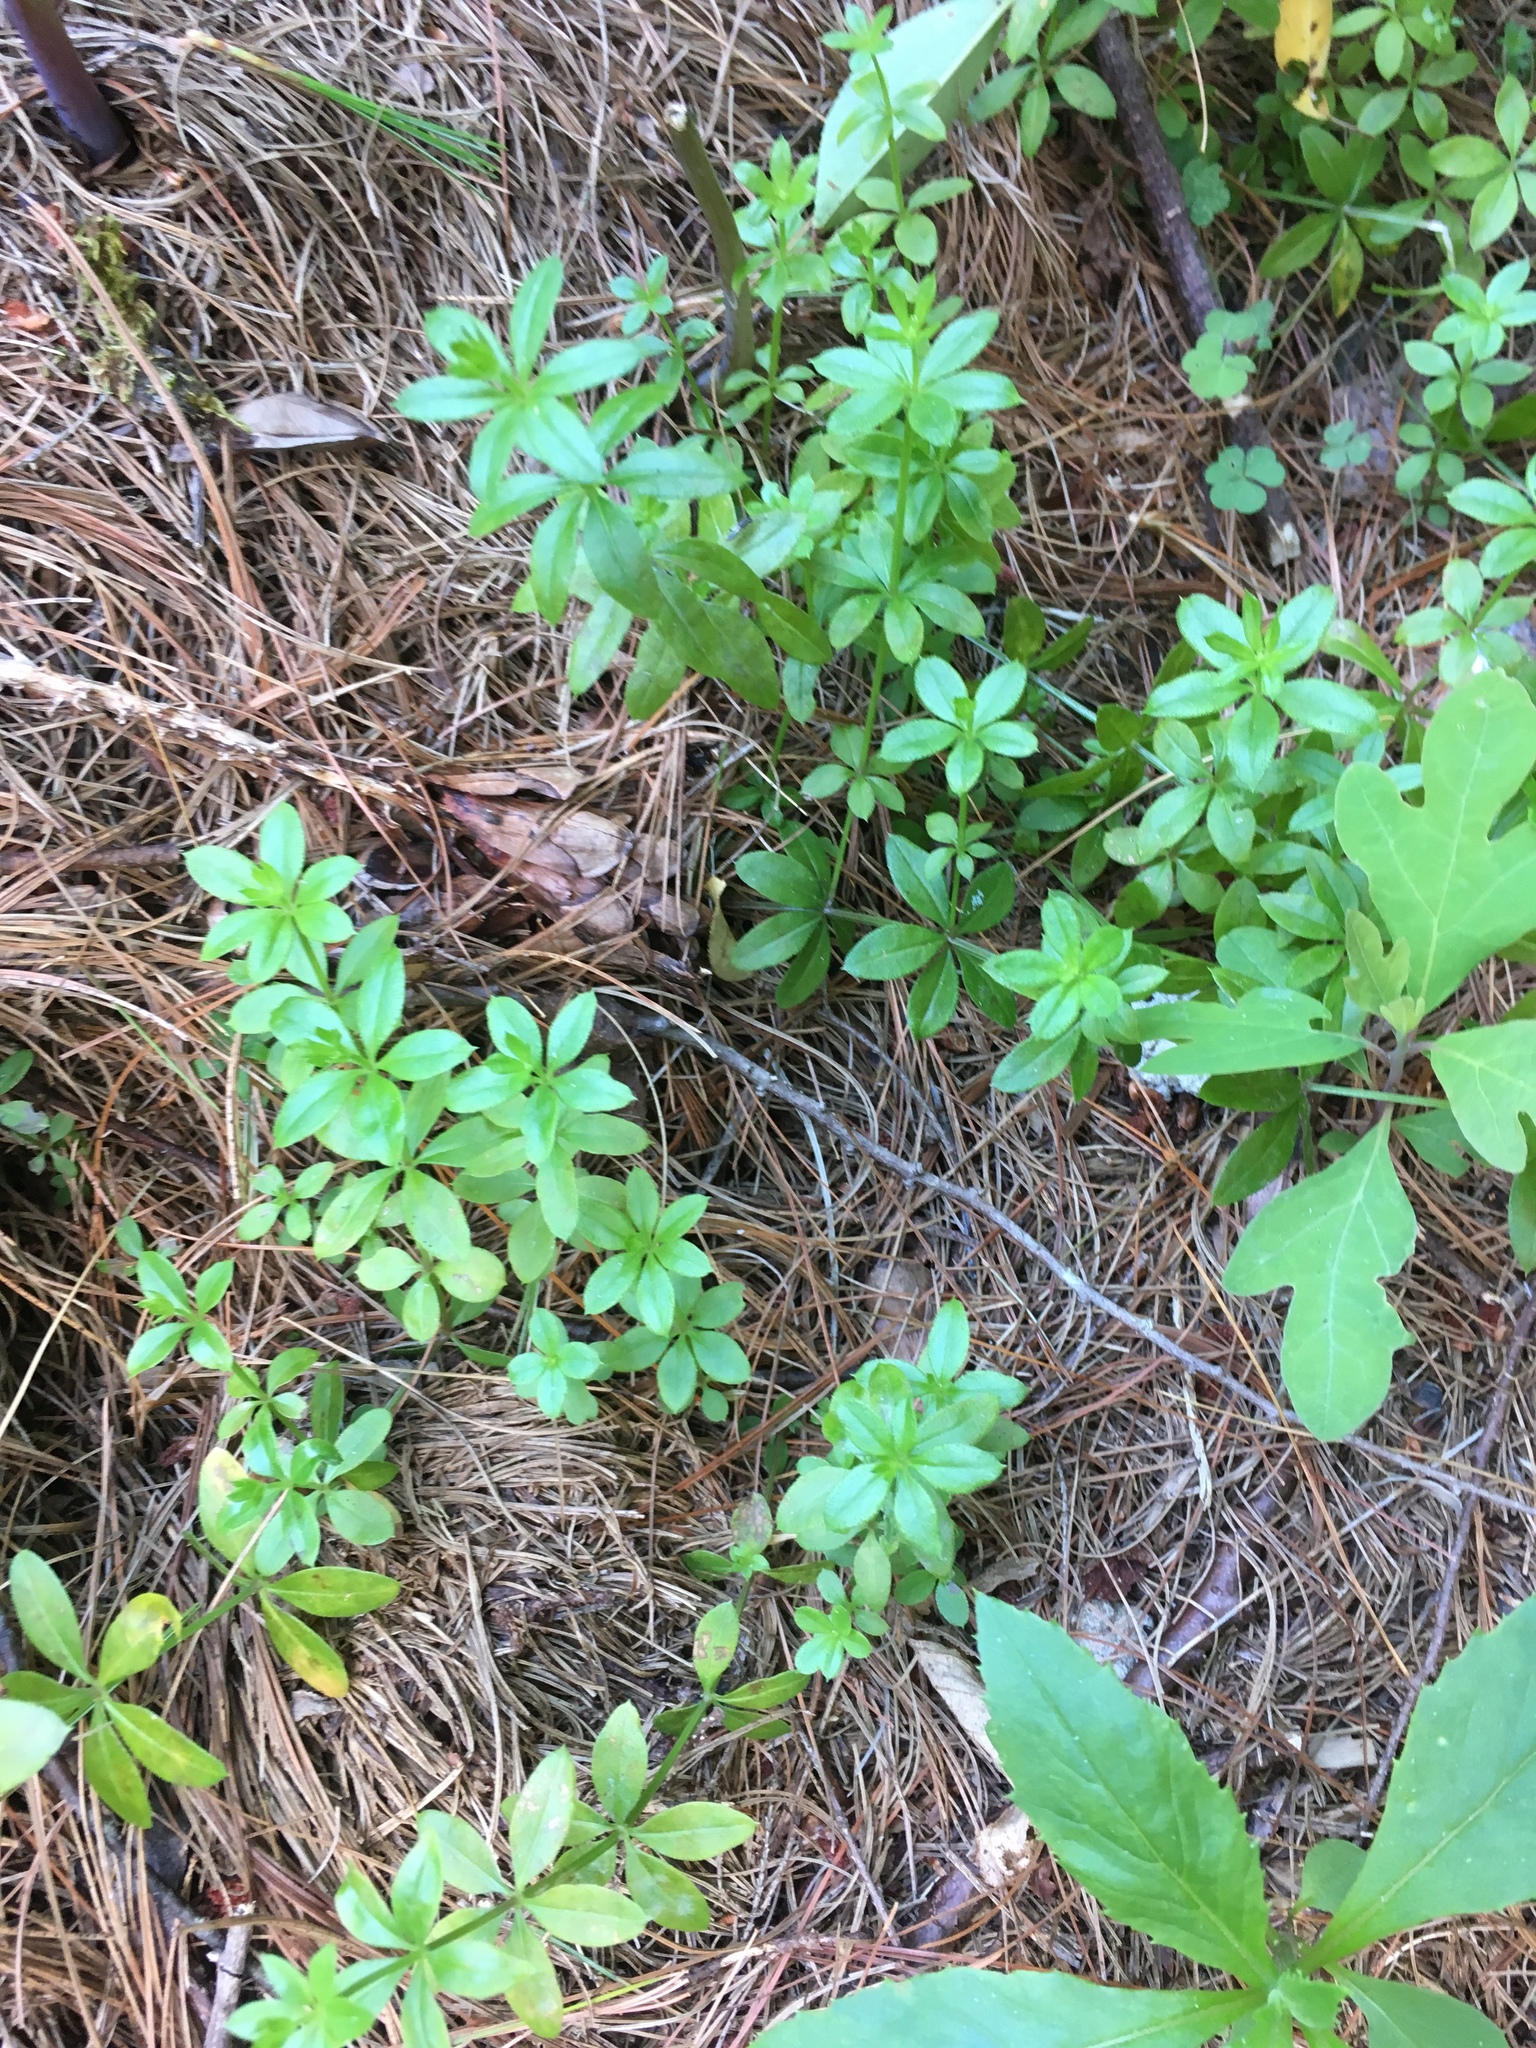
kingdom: Plantae
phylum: Tracheophyta
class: Magnoliopsida
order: Gentianales
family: Rubiaceae
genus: Galium
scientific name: Galium triflorum
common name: Fragrant bedstraw
